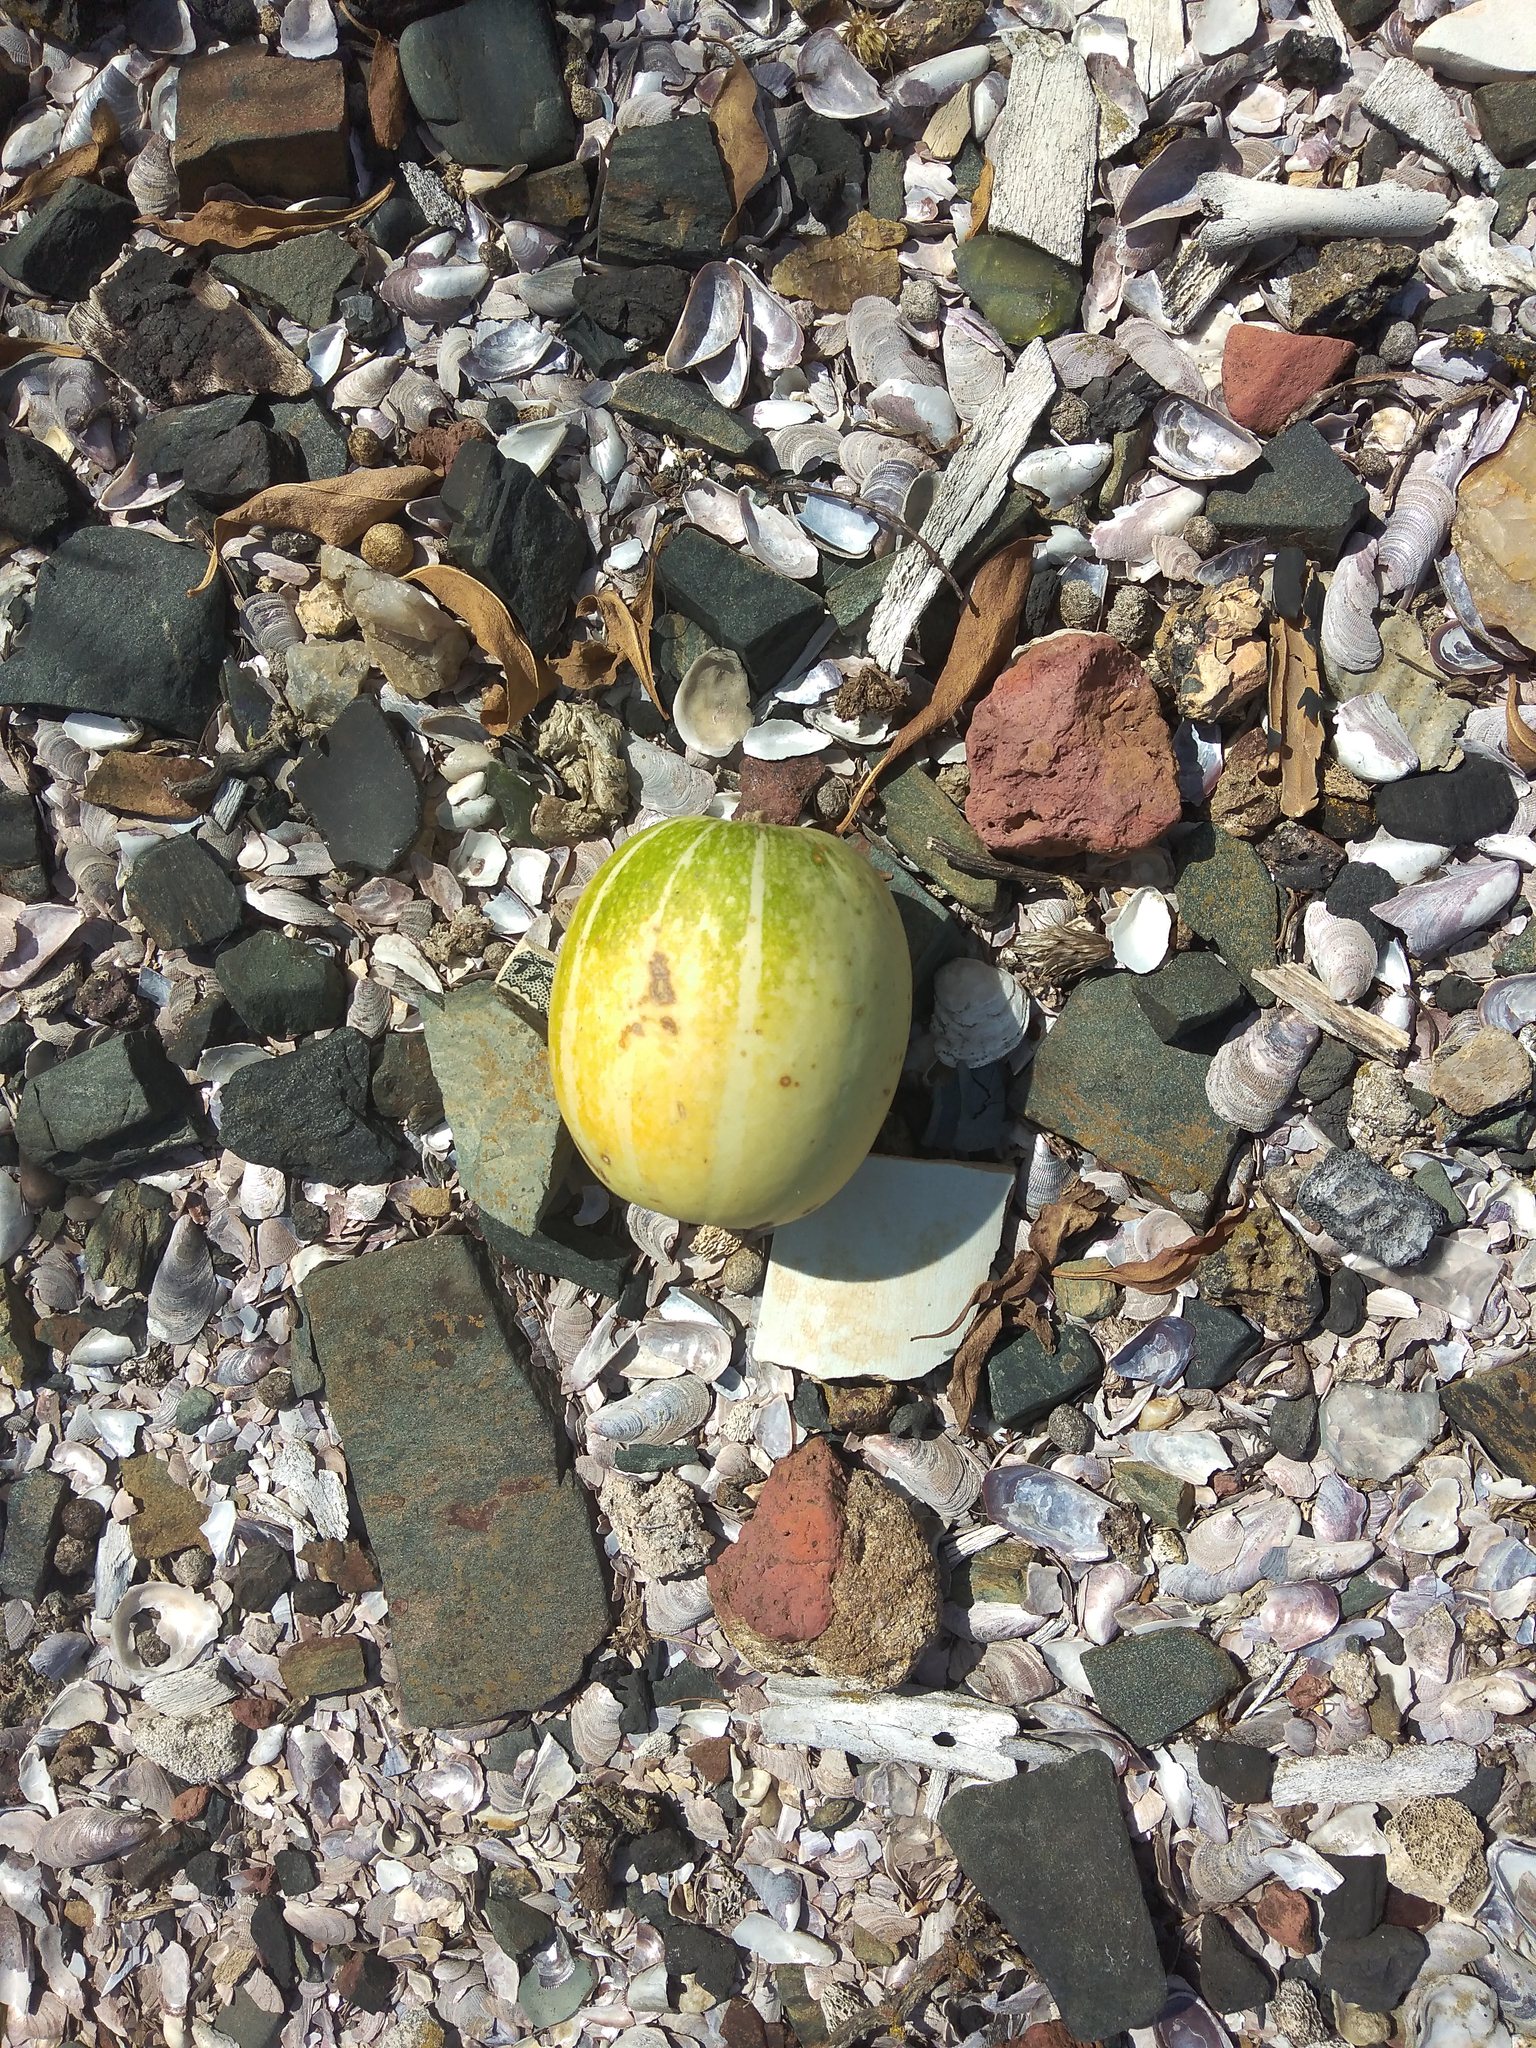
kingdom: Plantae
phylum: Tracheophyta
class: Magnoliopsida
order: Cucurbitales
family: Cucurbitaceae
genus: Cucurbita
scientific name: Cucurbita maxima
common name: Pumpkin
